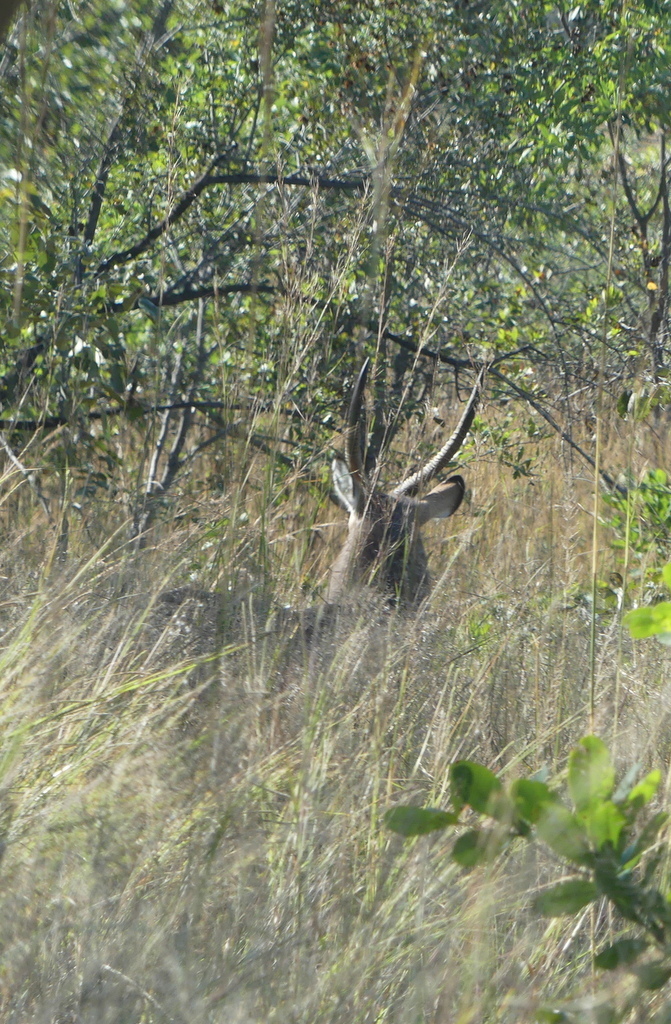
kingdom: Animalia
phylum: Chordata
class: Mammalia
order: Artiodactyla
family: Bovidae
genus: Kobus
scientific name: Kobus ellipsiprymnus
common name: Waterbuck
